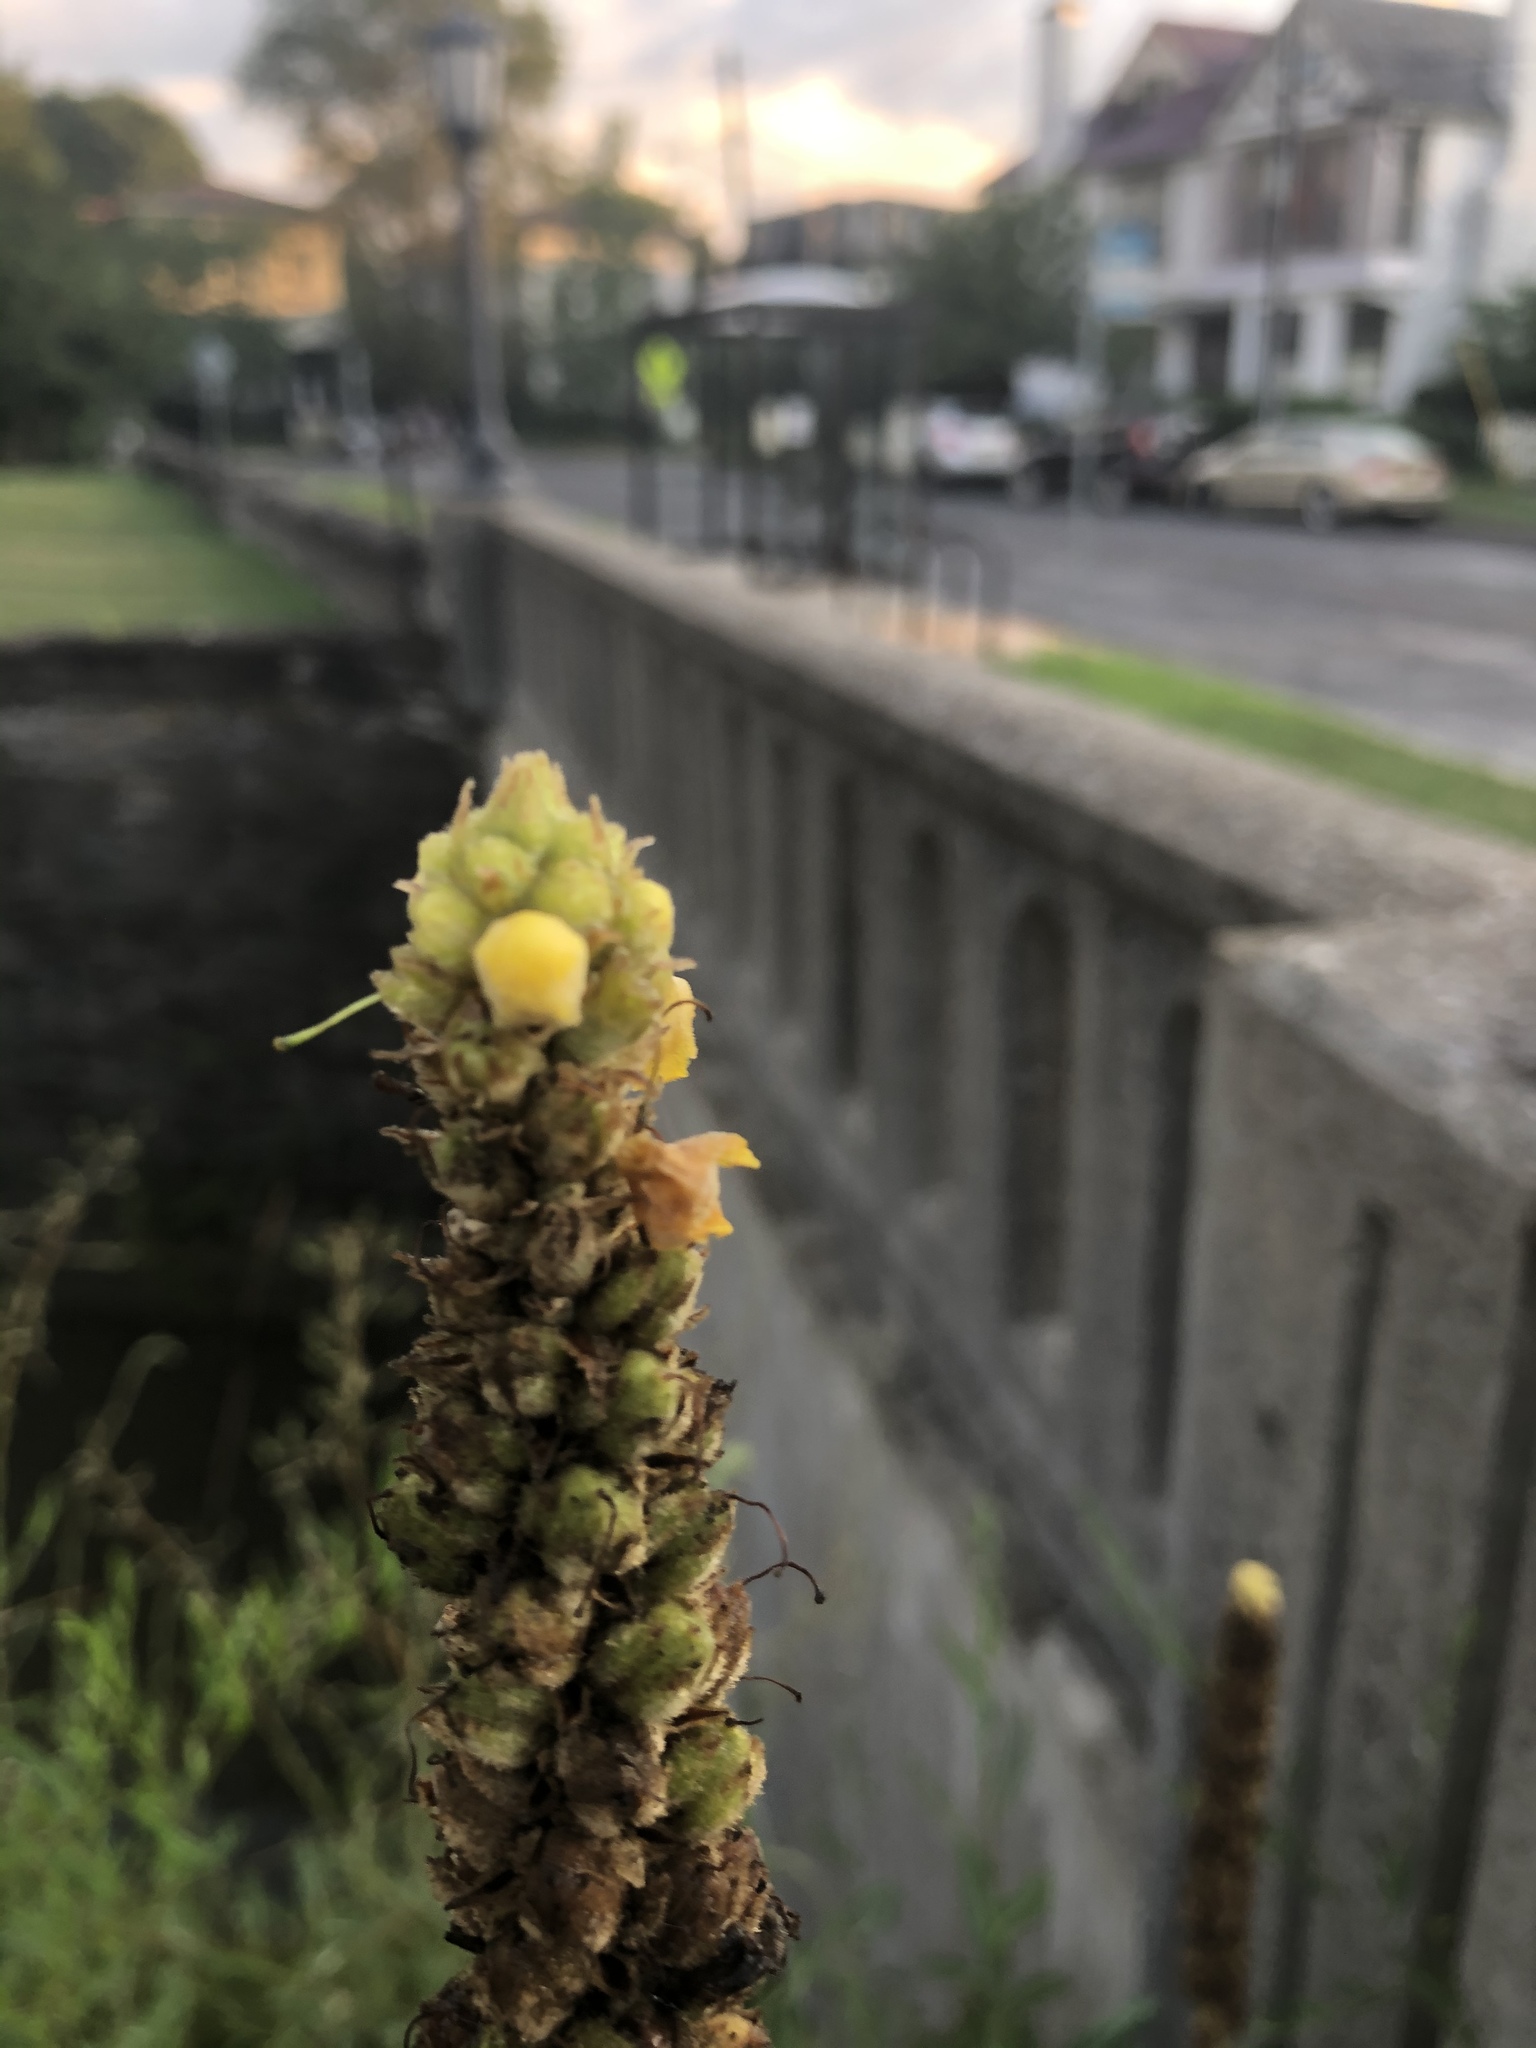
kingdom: Plantae
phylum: Tracheophyta
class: Magnoliopsida
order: Lamiales
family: Scrophulariaceae
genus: Verbascum
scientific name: Verbascum thapsus
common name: Common mullein
